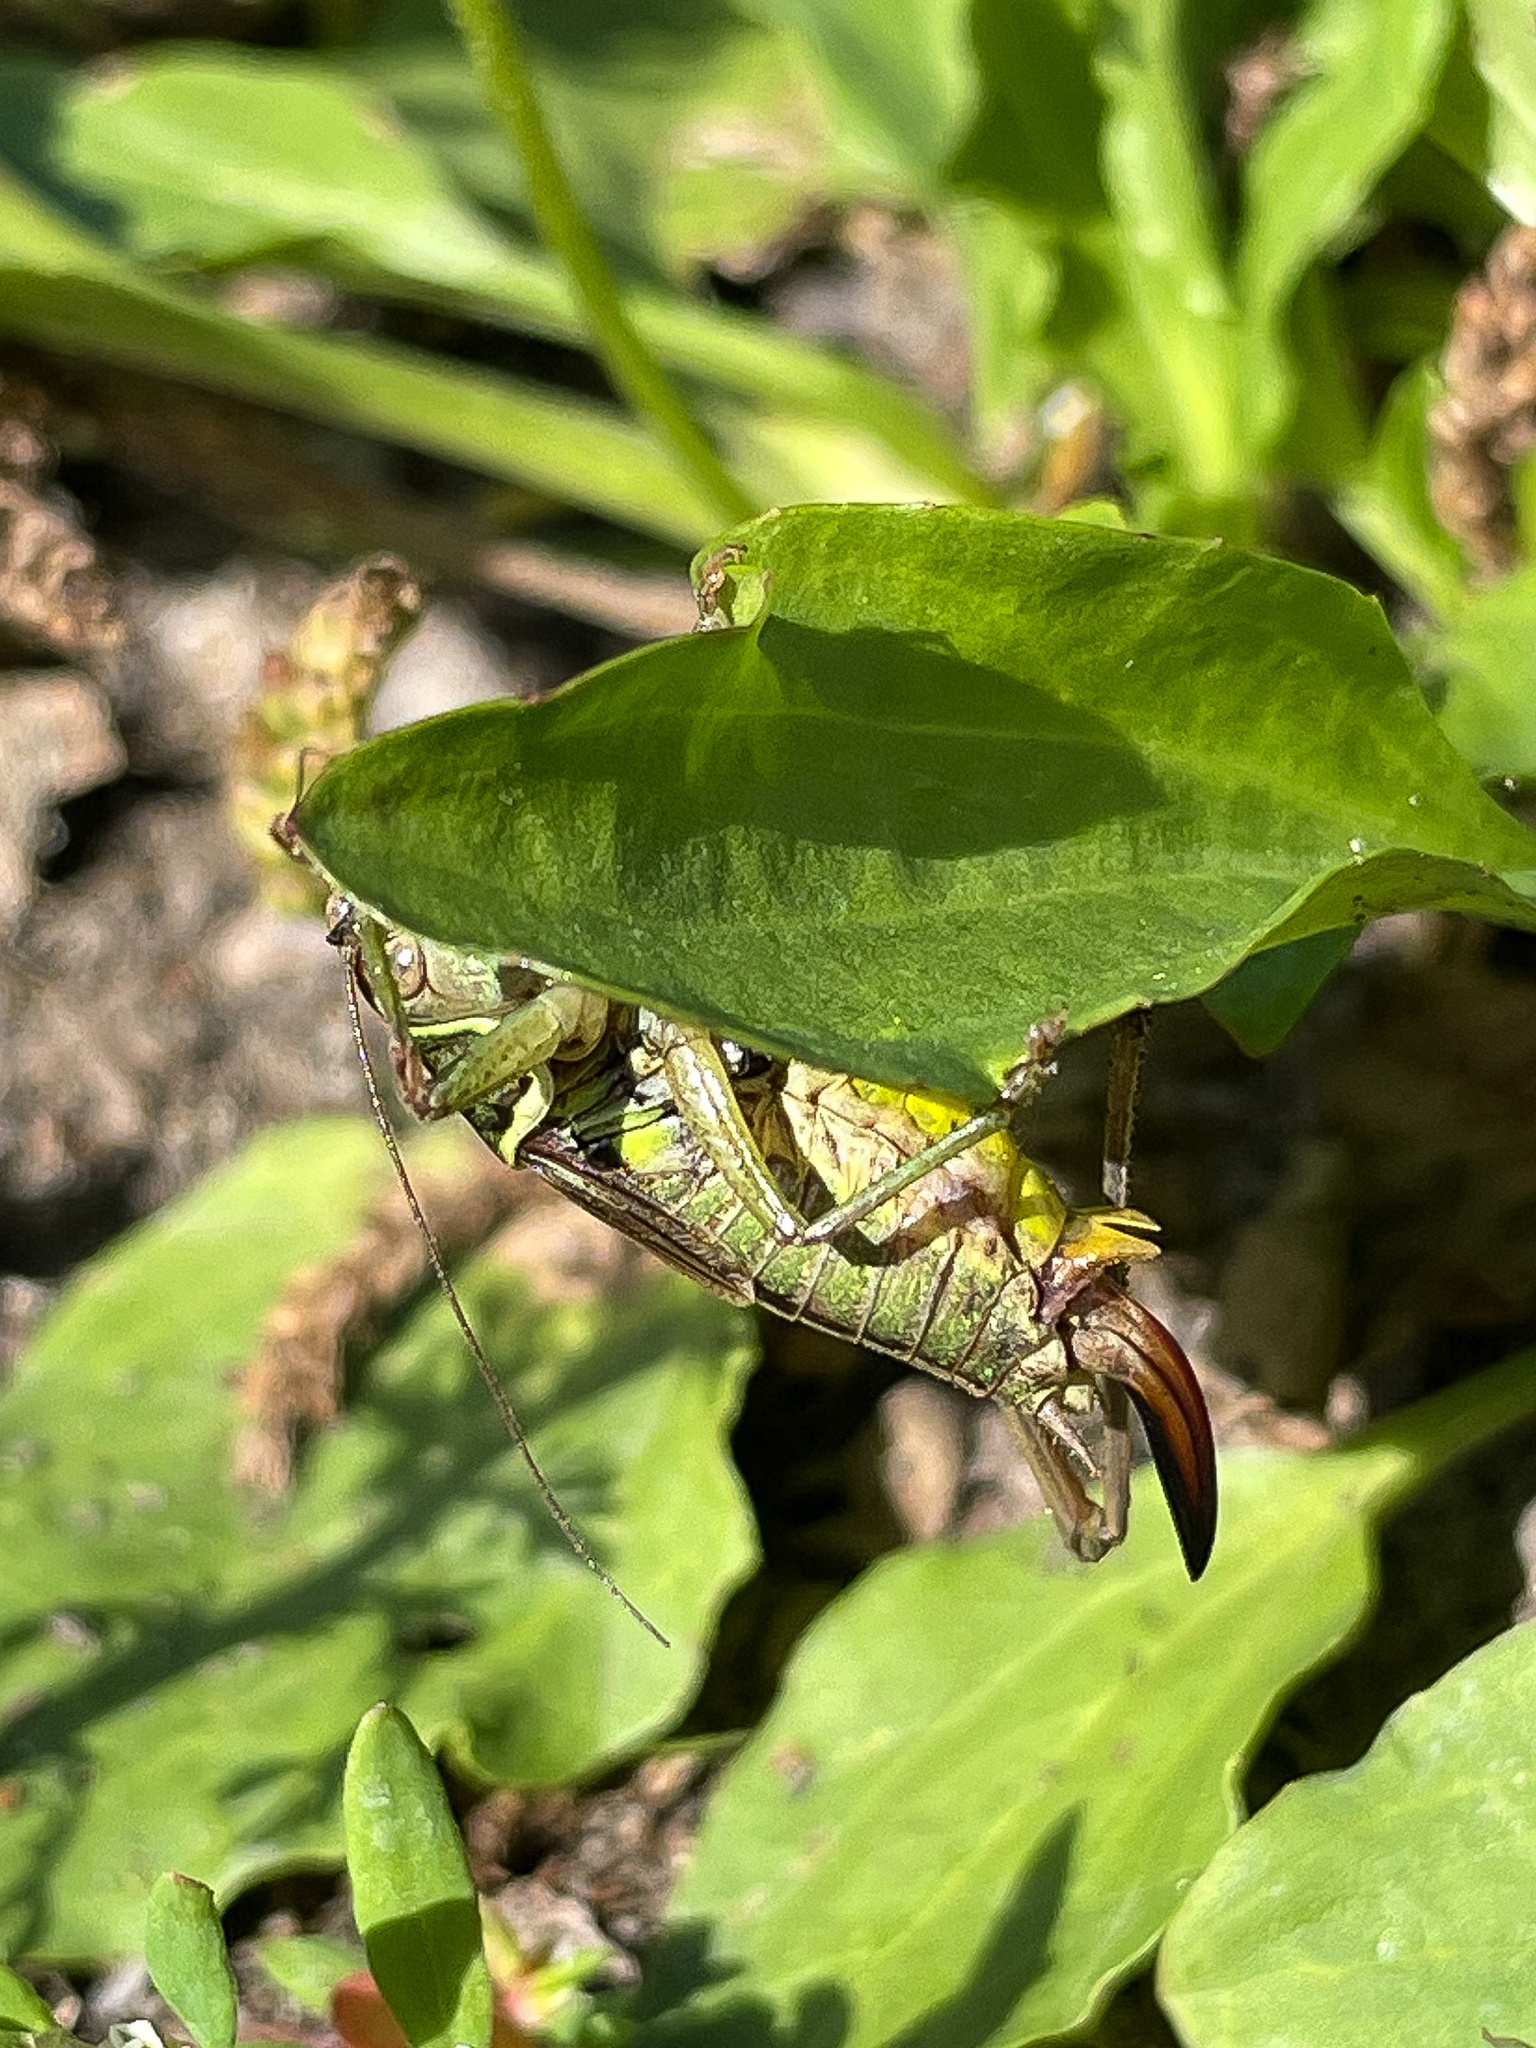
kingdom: Animalia
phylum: Arthropoda
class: Insecta
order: Orthoptera
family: Tettigoniidae
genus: Roeseliana
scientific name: Roeseliana roeselii
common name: Roesel's bush cricket
